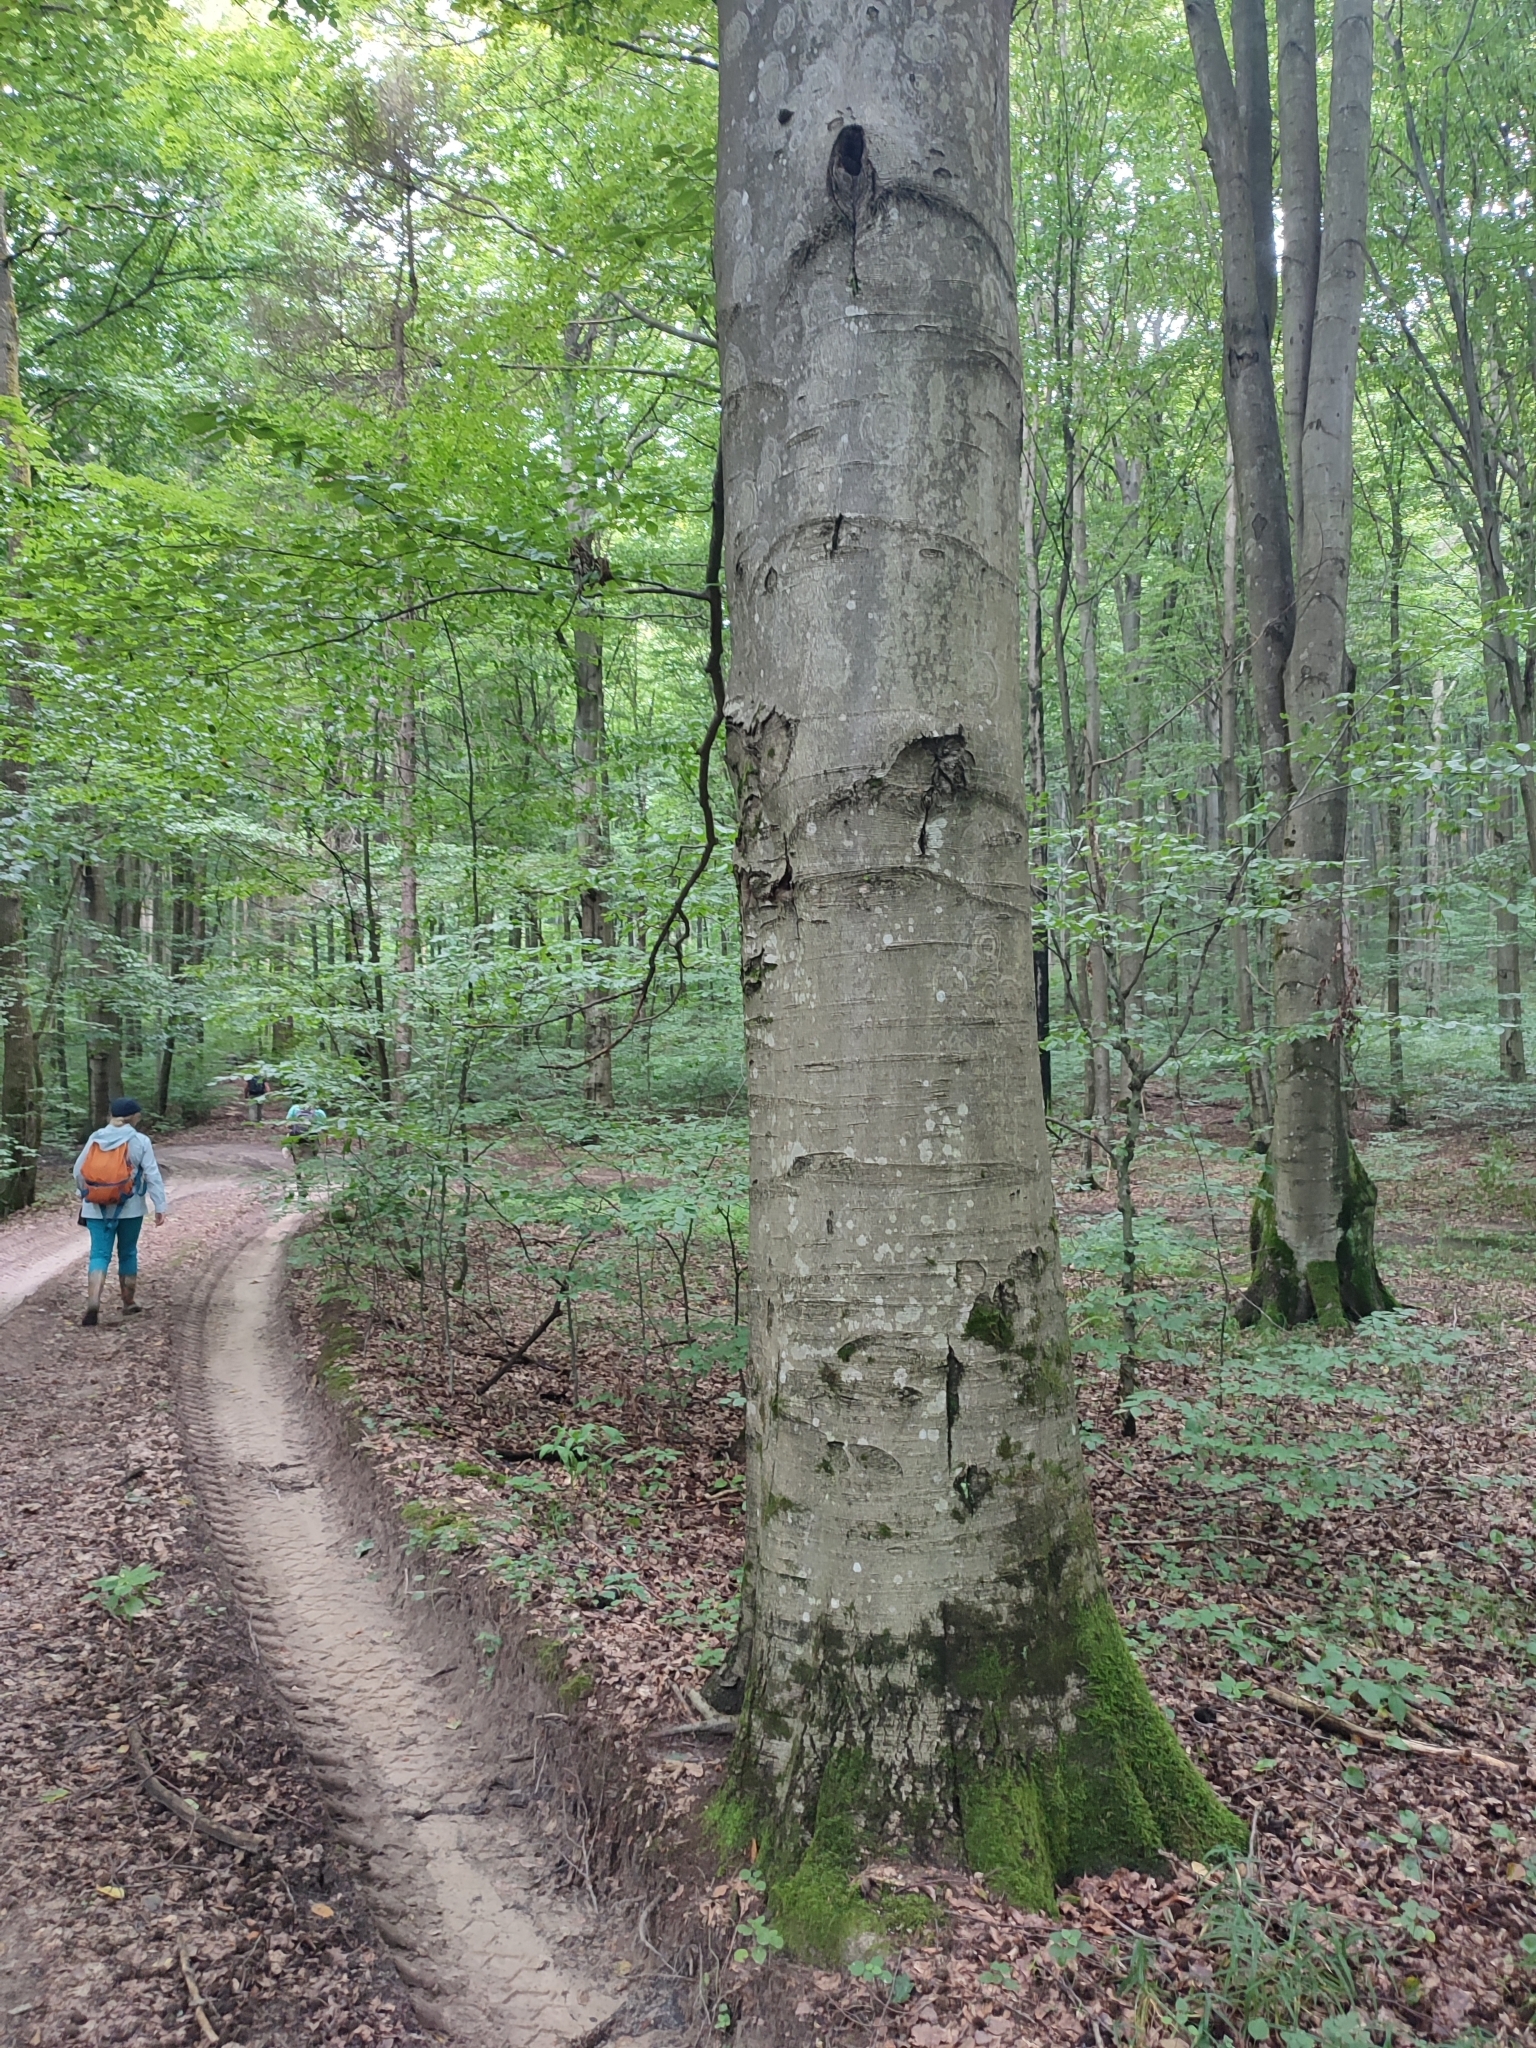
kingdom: Plantae
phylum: Tracheophyta
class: Magnoliopsida
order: Fagales
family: Fagaceae
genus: Fagus
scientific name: Fagus sylvatica
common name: Beech
